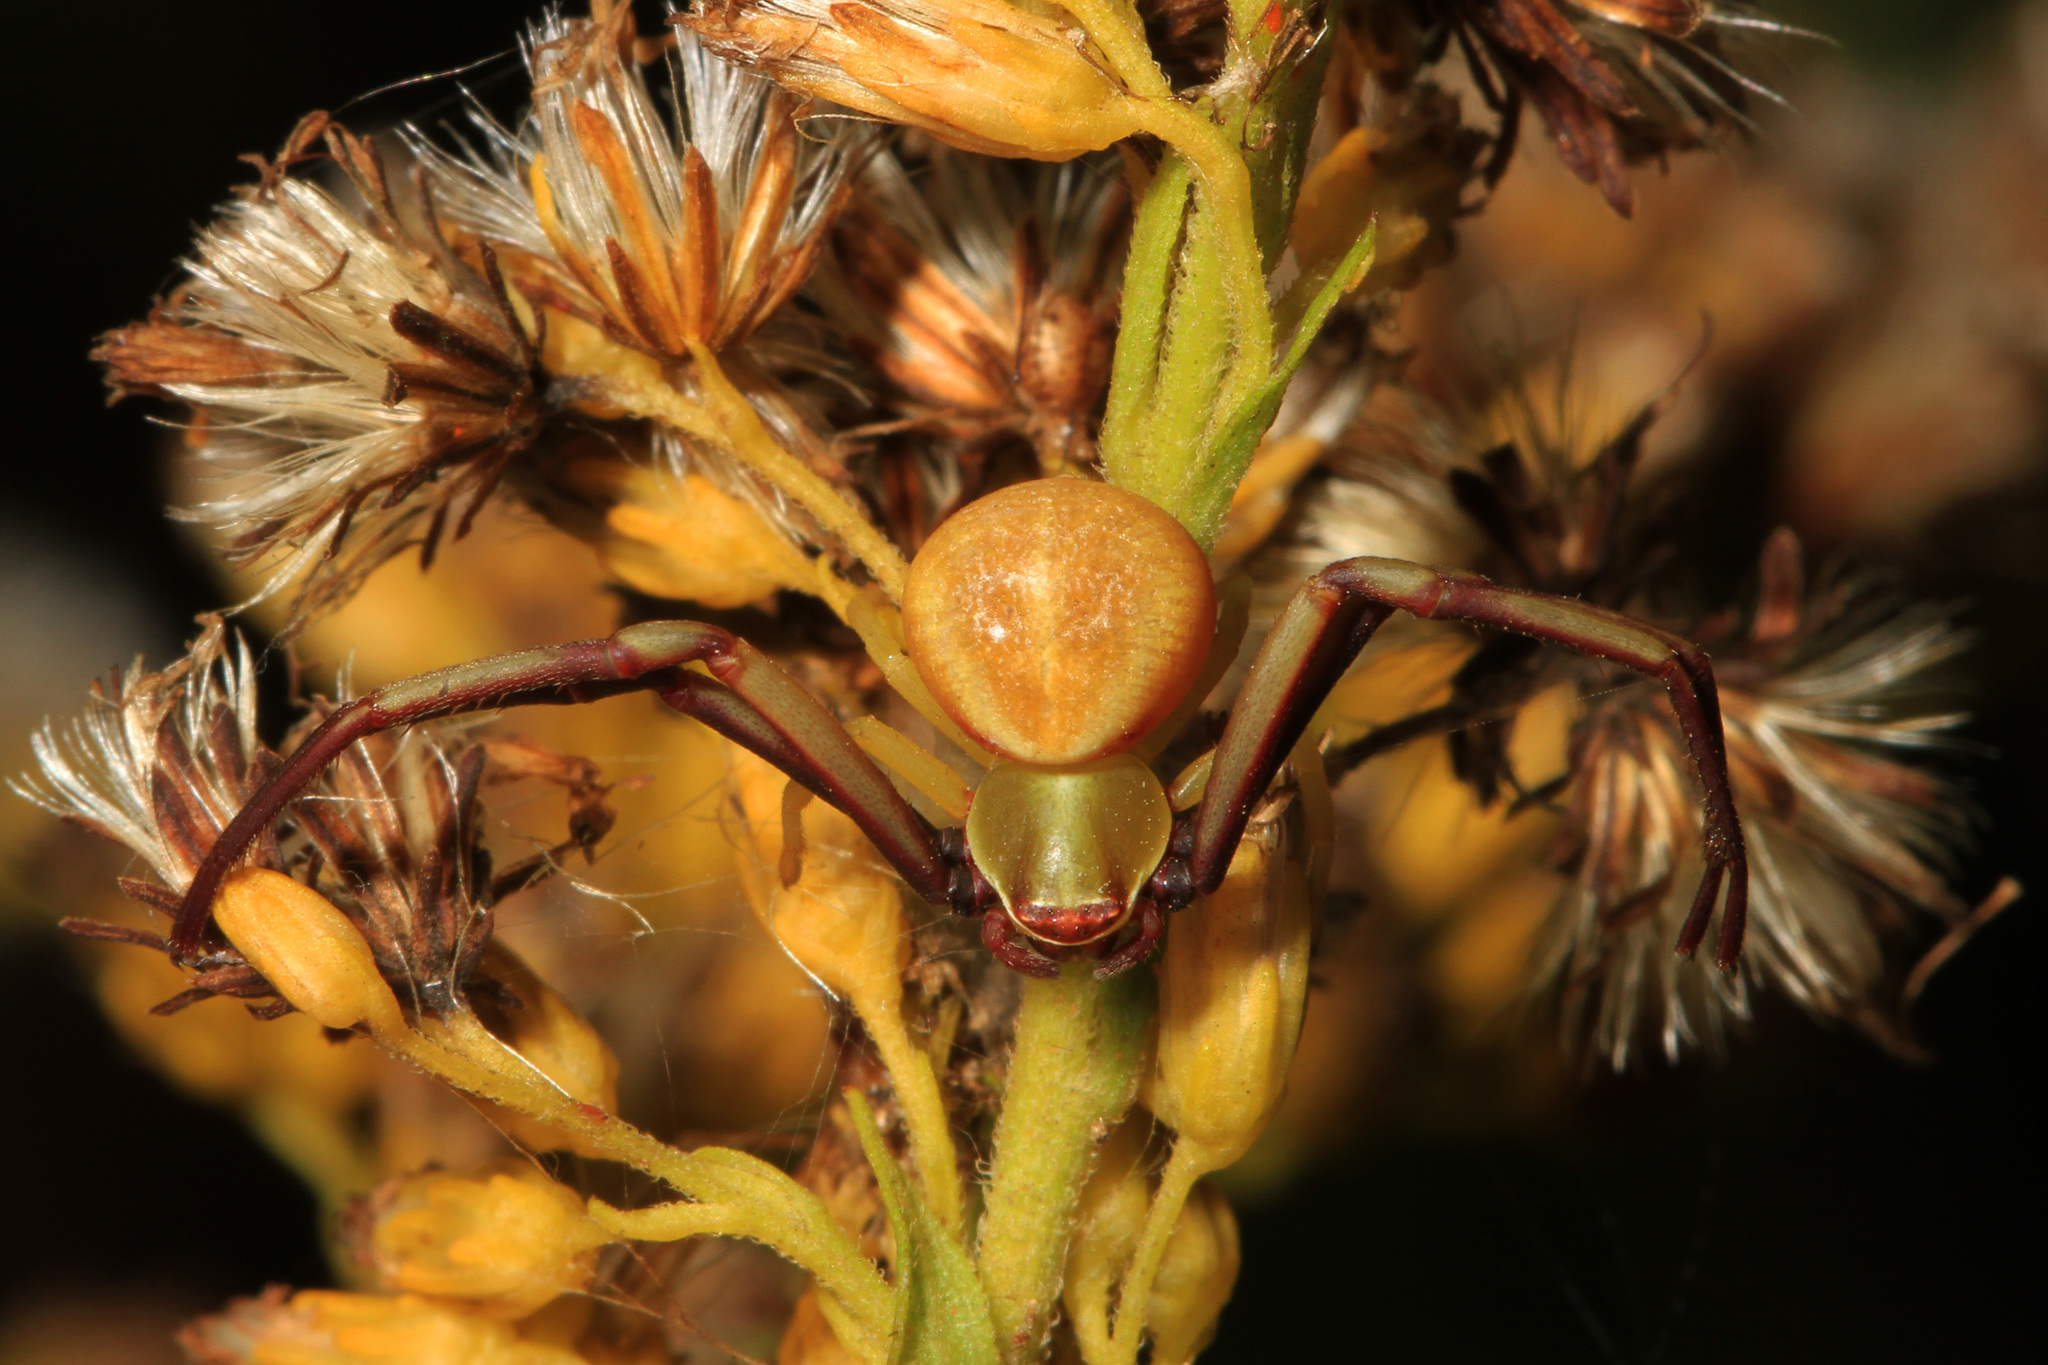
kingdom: Animalia
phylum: Arthropoda
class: Arachnida
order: Araneae
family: Thomisidae
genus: Misumenoides
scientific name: Misumenoides formosipes
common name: White-banded crab spider
